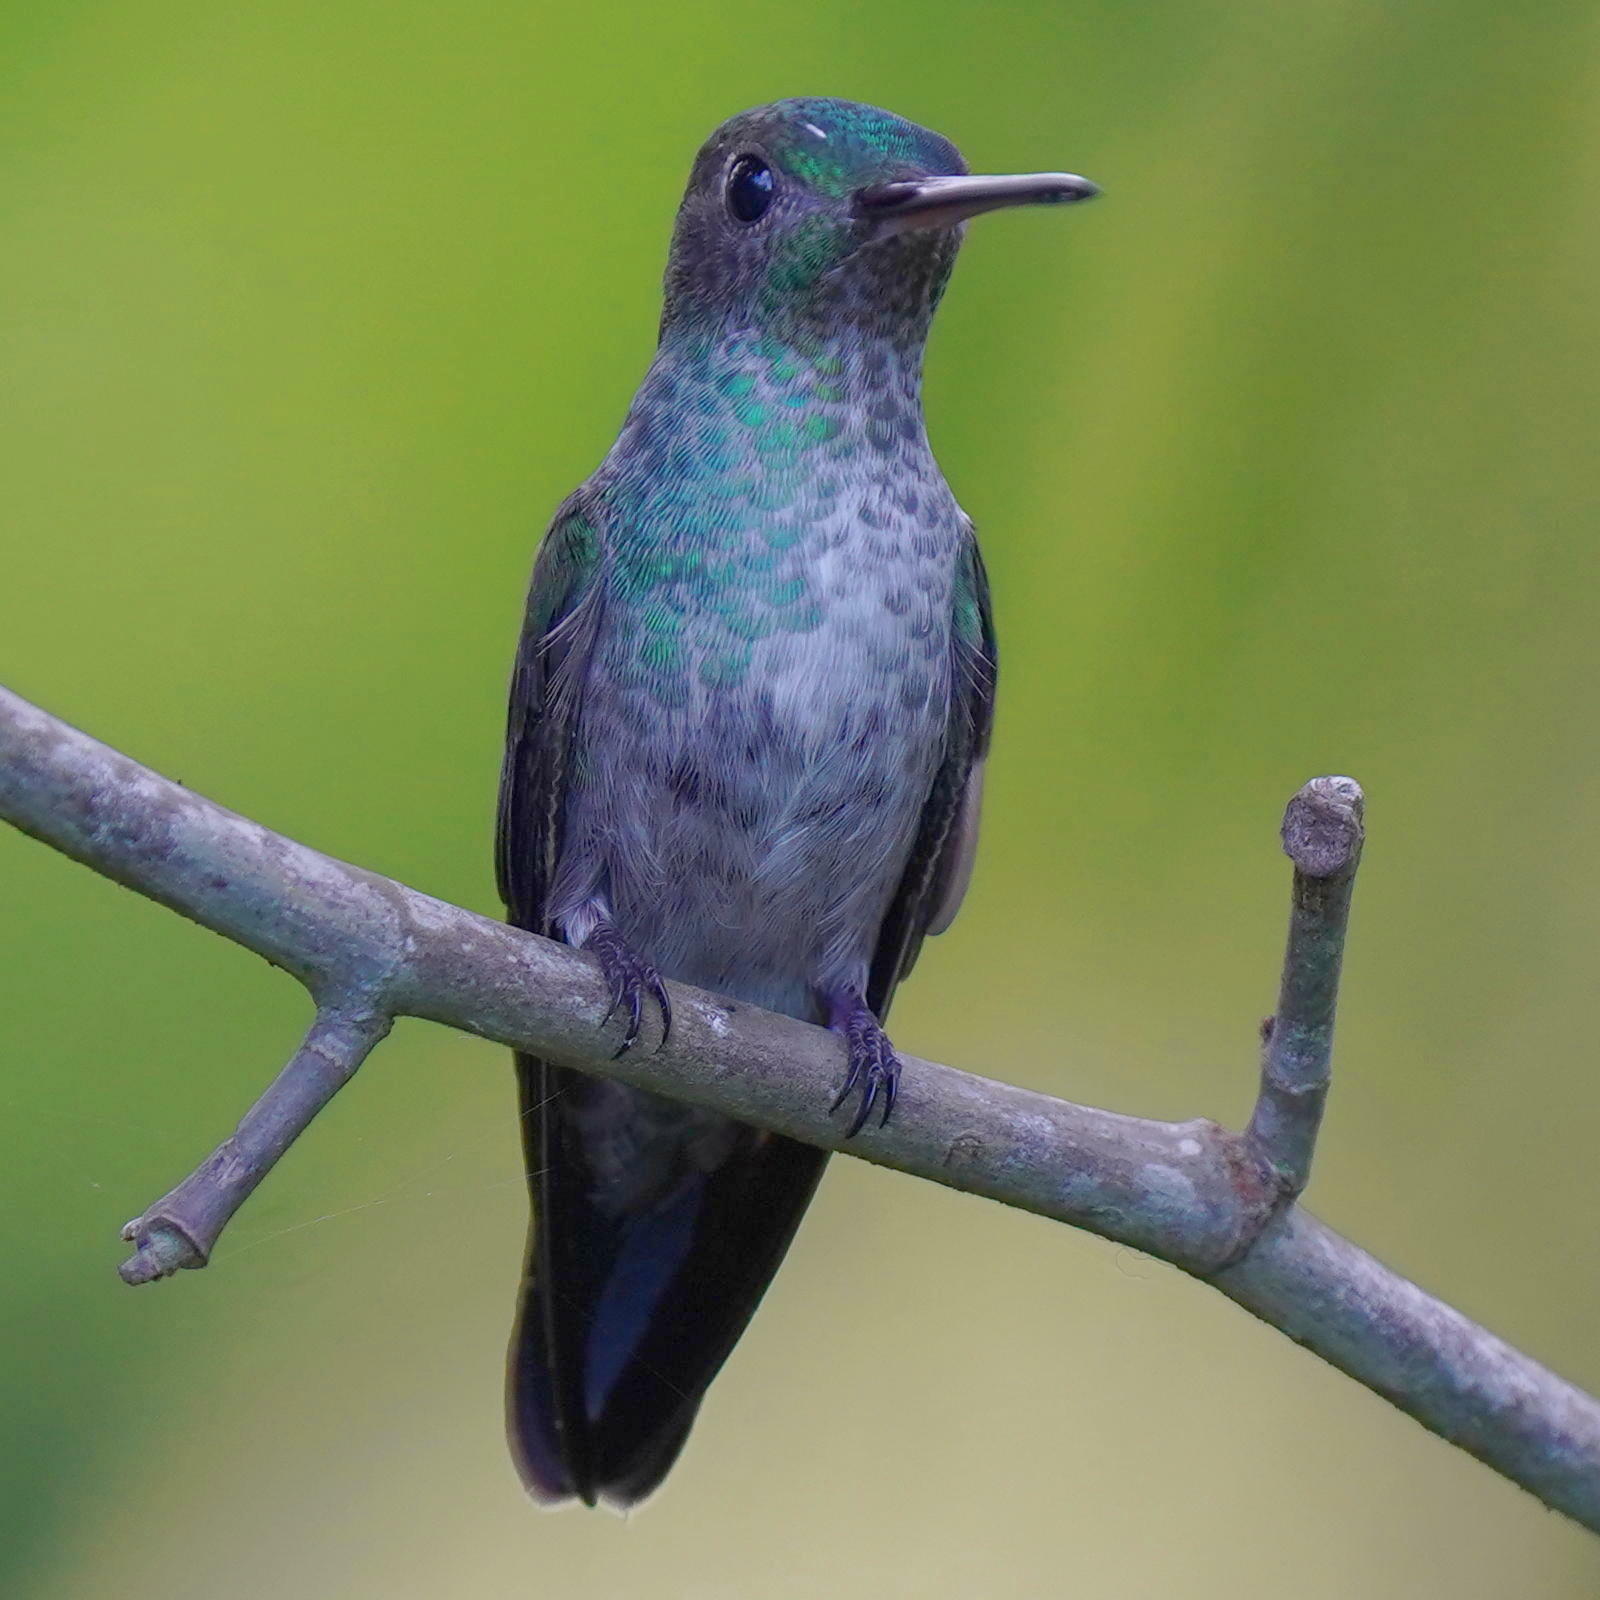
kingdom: Animalia
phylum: Chordata
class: Aves
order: Apodiformes
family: Trochilidae
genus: Polyerata
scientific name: Polyerata amabilis
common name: Blue-chested hummingbird
